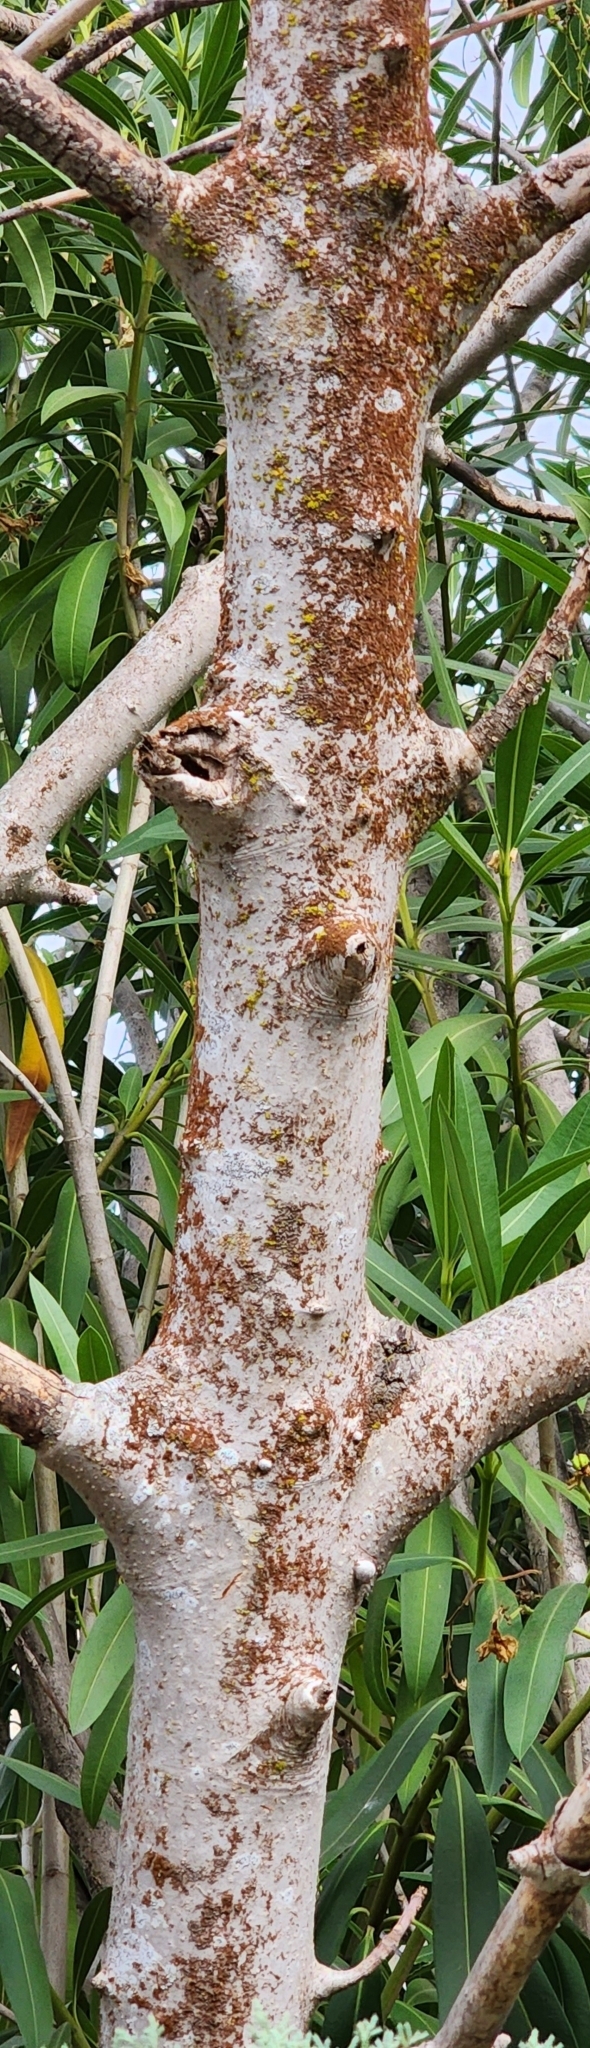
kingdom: Plantae
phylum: Tracheophyta
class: Magnoliopsida
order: Sapindales
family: Sapindaceae
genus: Aesculus
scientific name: Aesculus californica
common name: California buckeye
